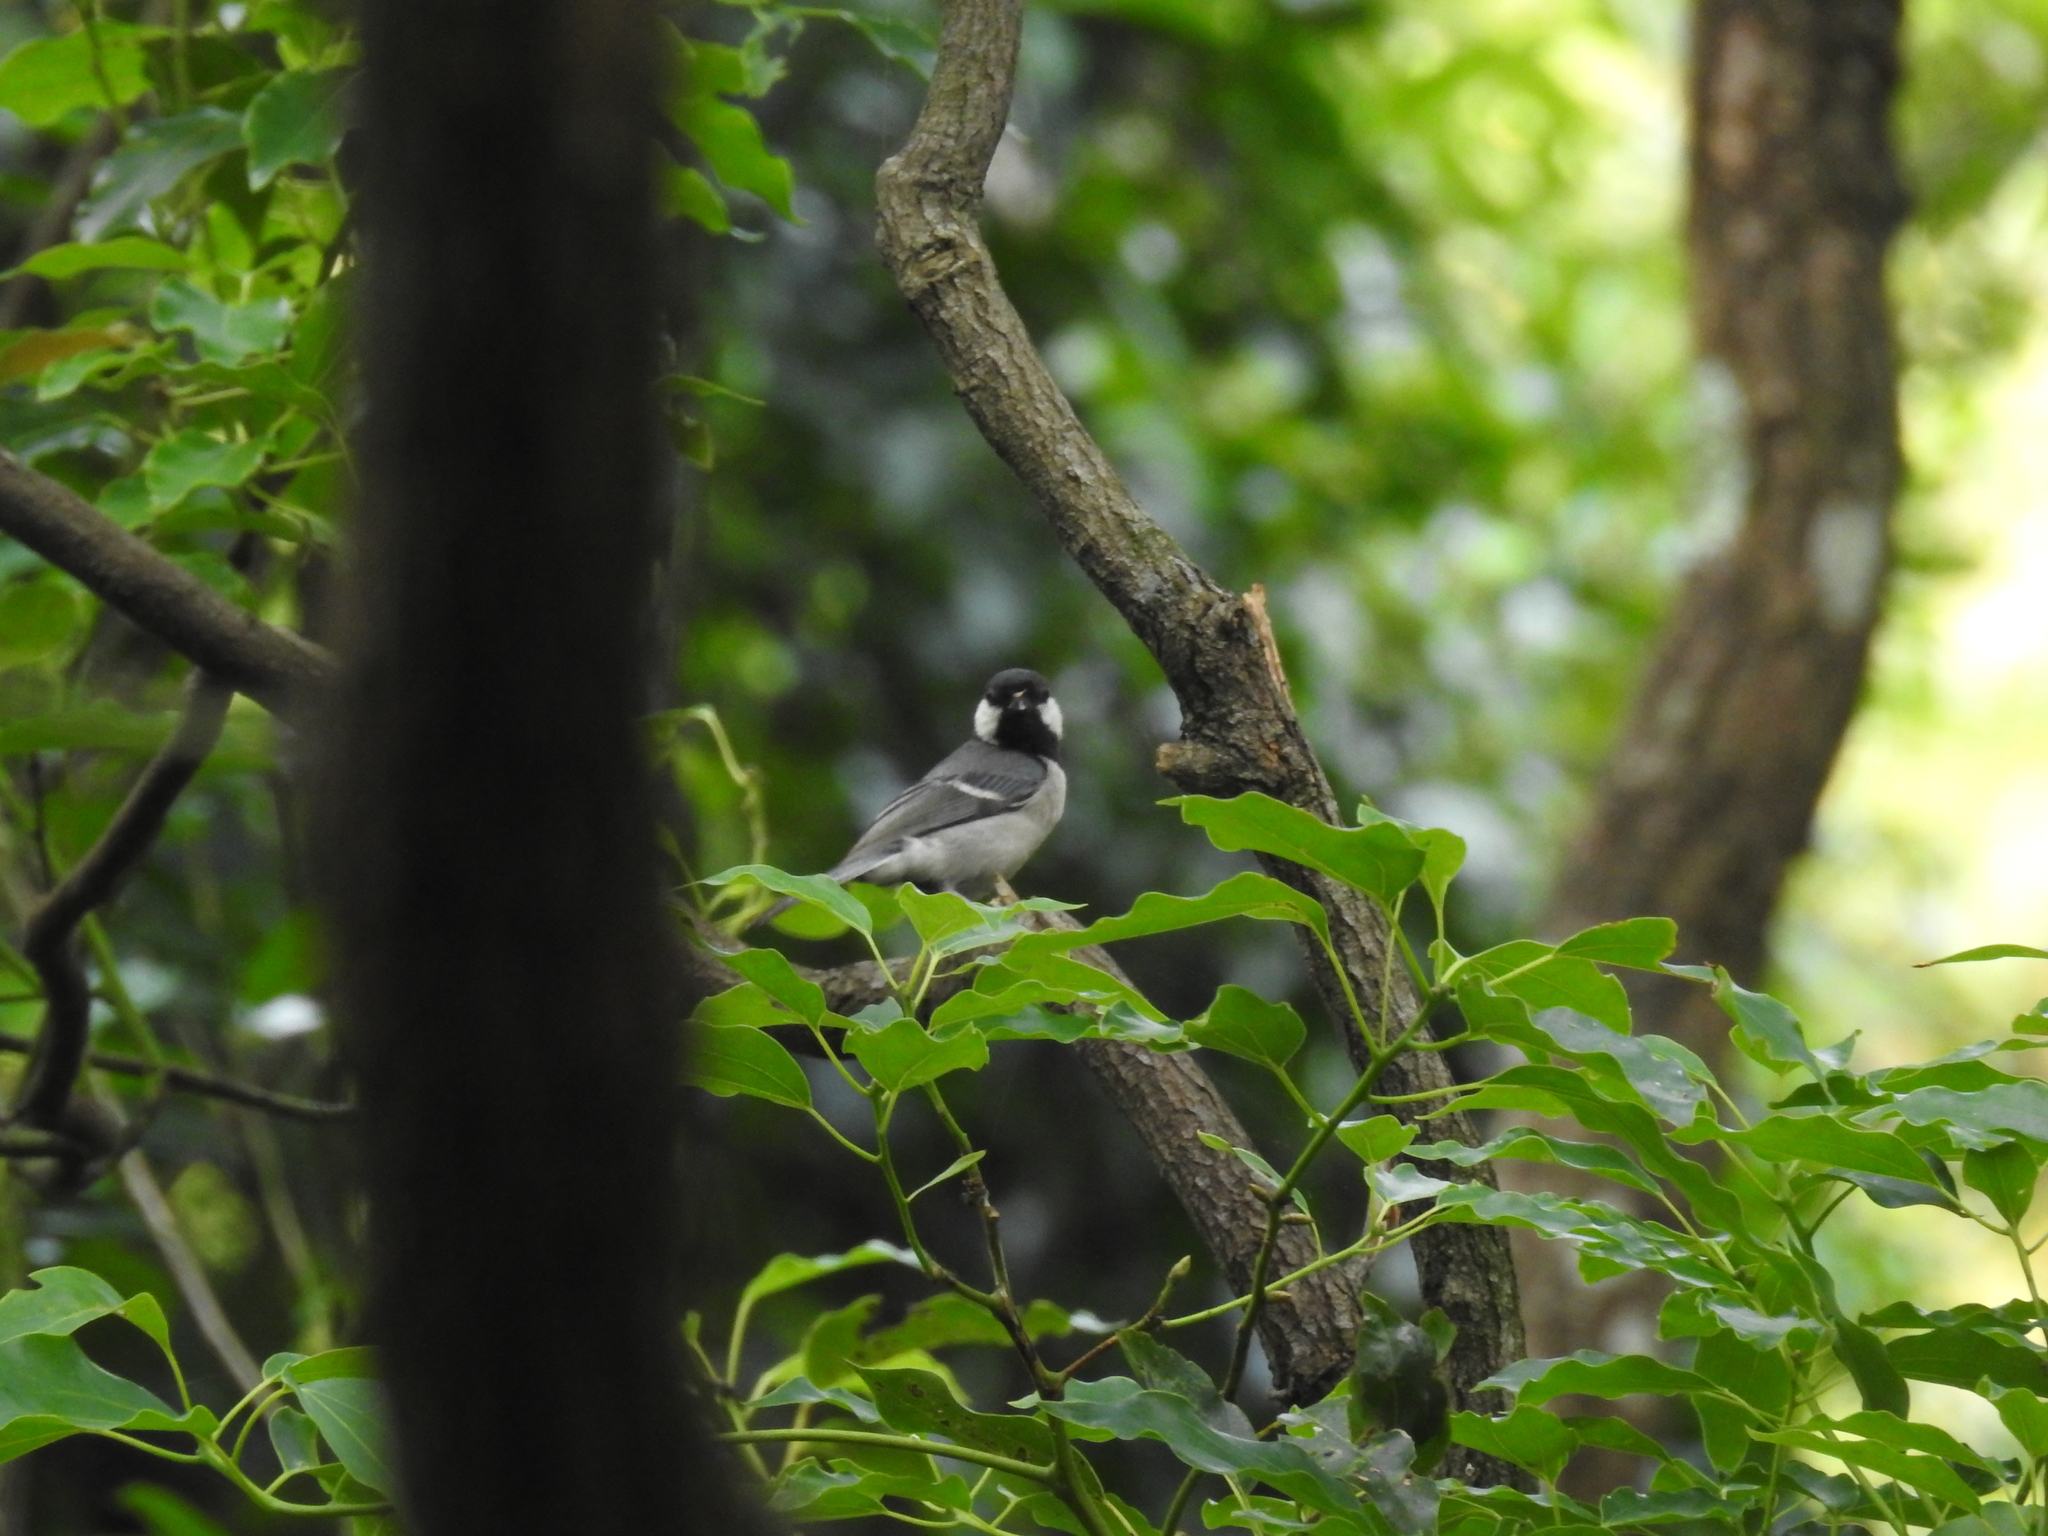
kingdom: Animalia
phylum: Chordata
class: Aves
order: Passeriformes
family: Paridae
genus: Parus
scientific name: Parus minor
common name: Japanese tit
